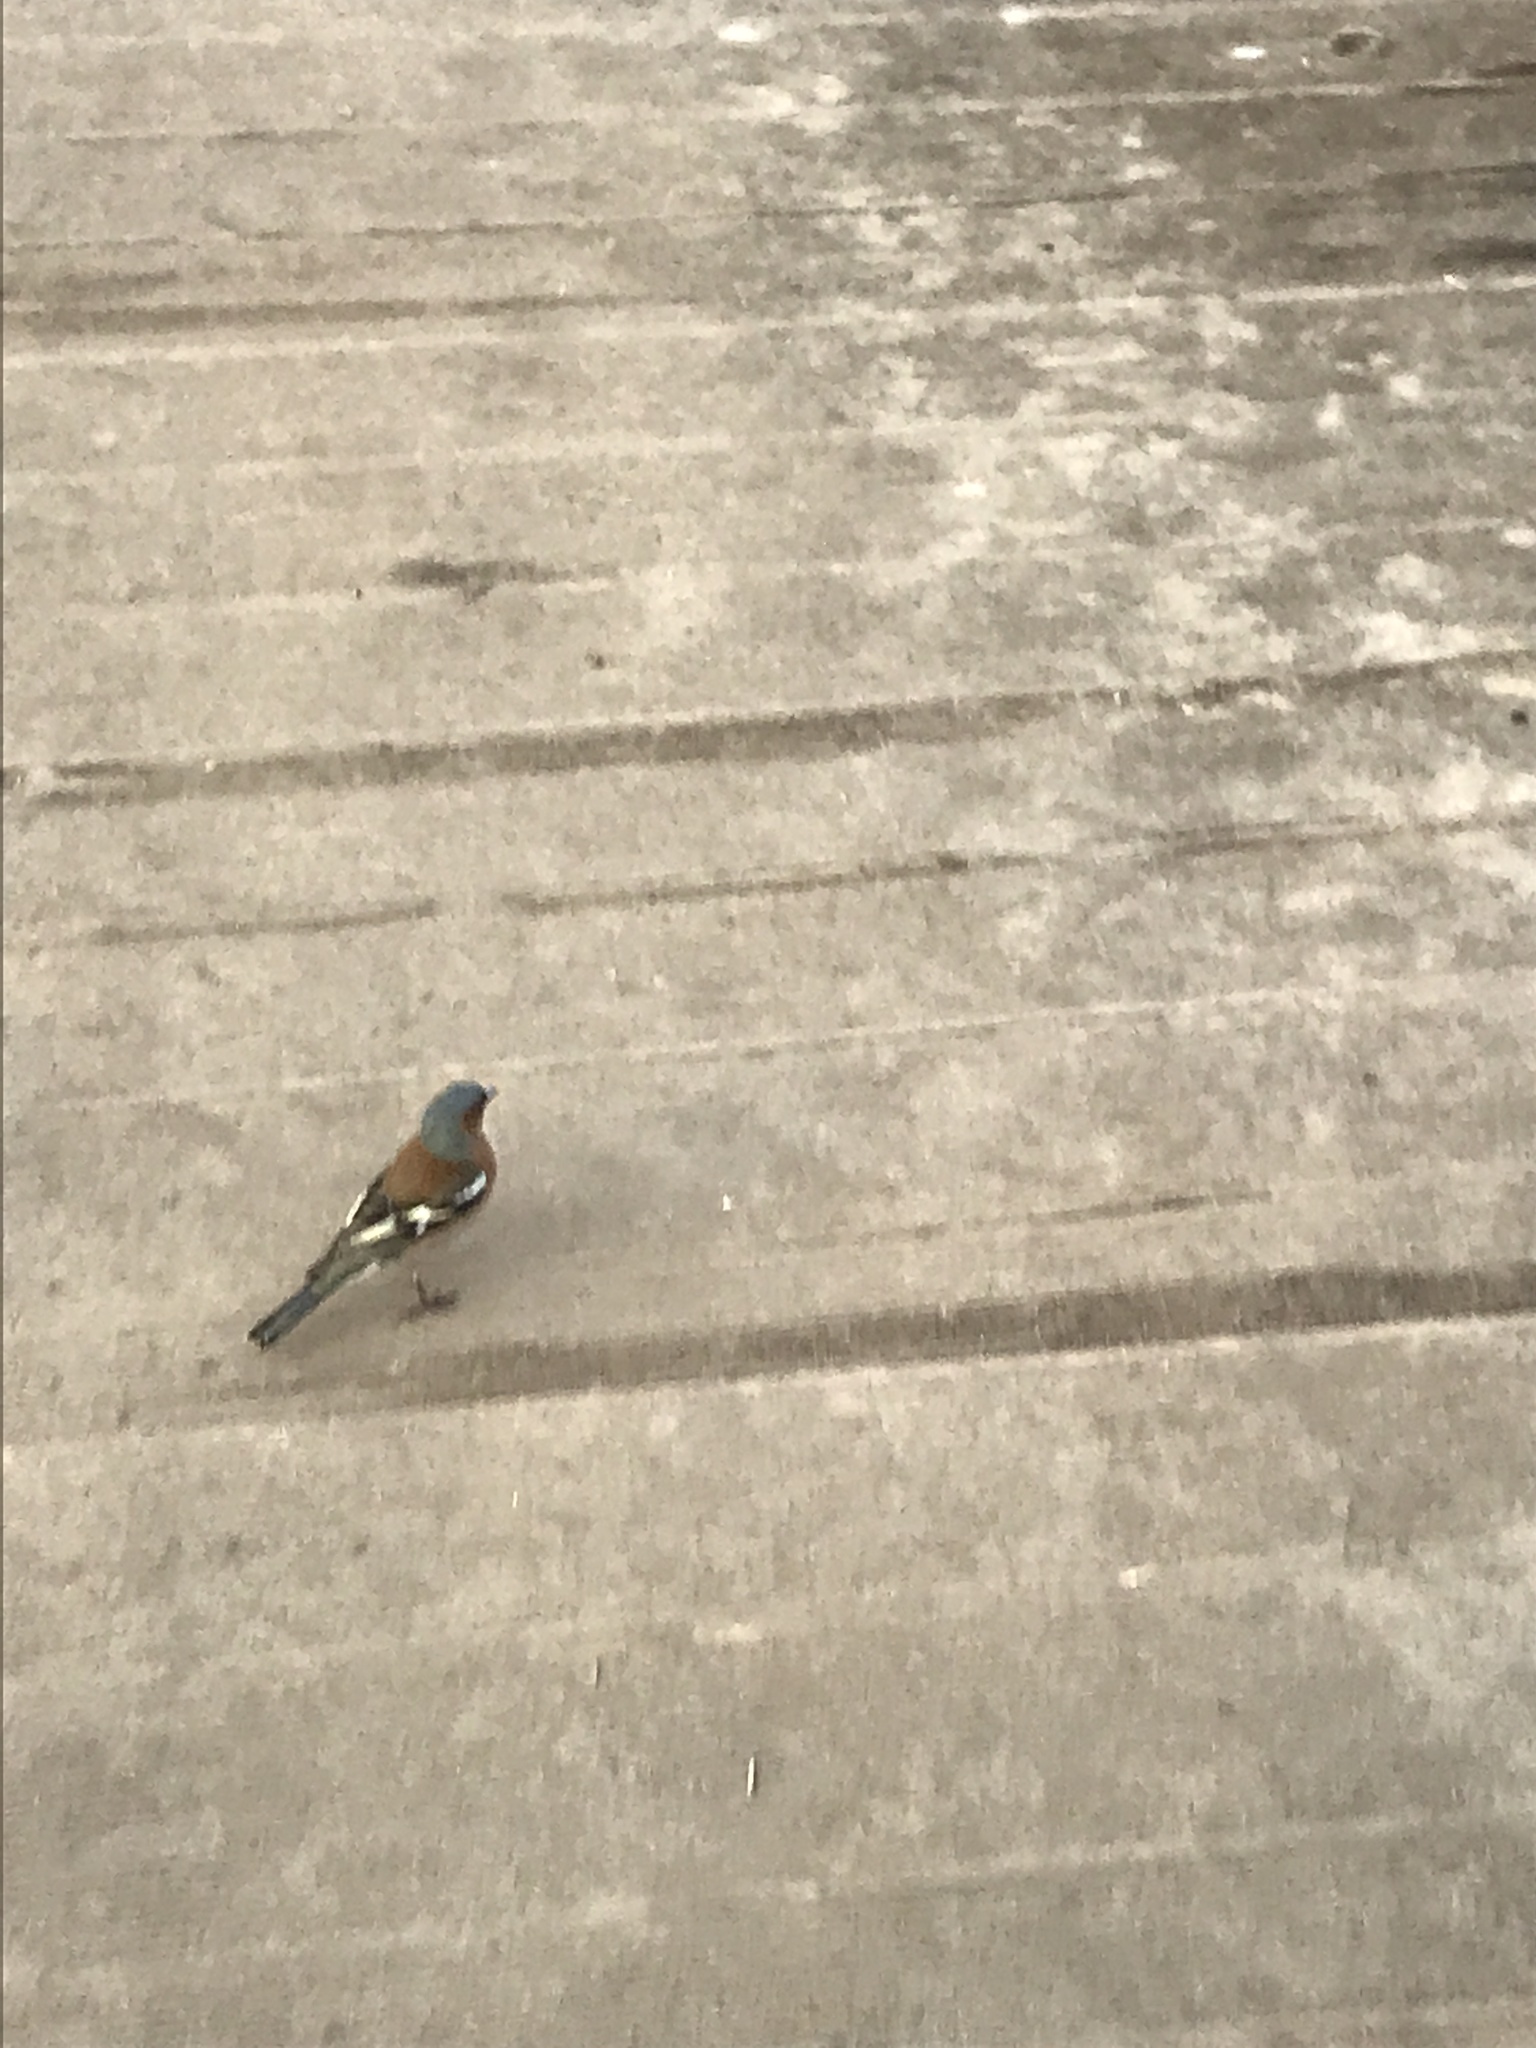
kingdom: Animalia
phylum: Chordata
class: Aves
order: Passeriformes
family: Fringillidae
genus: Fringilla
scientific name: Fringilla coelebs
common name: Common chaffinch
